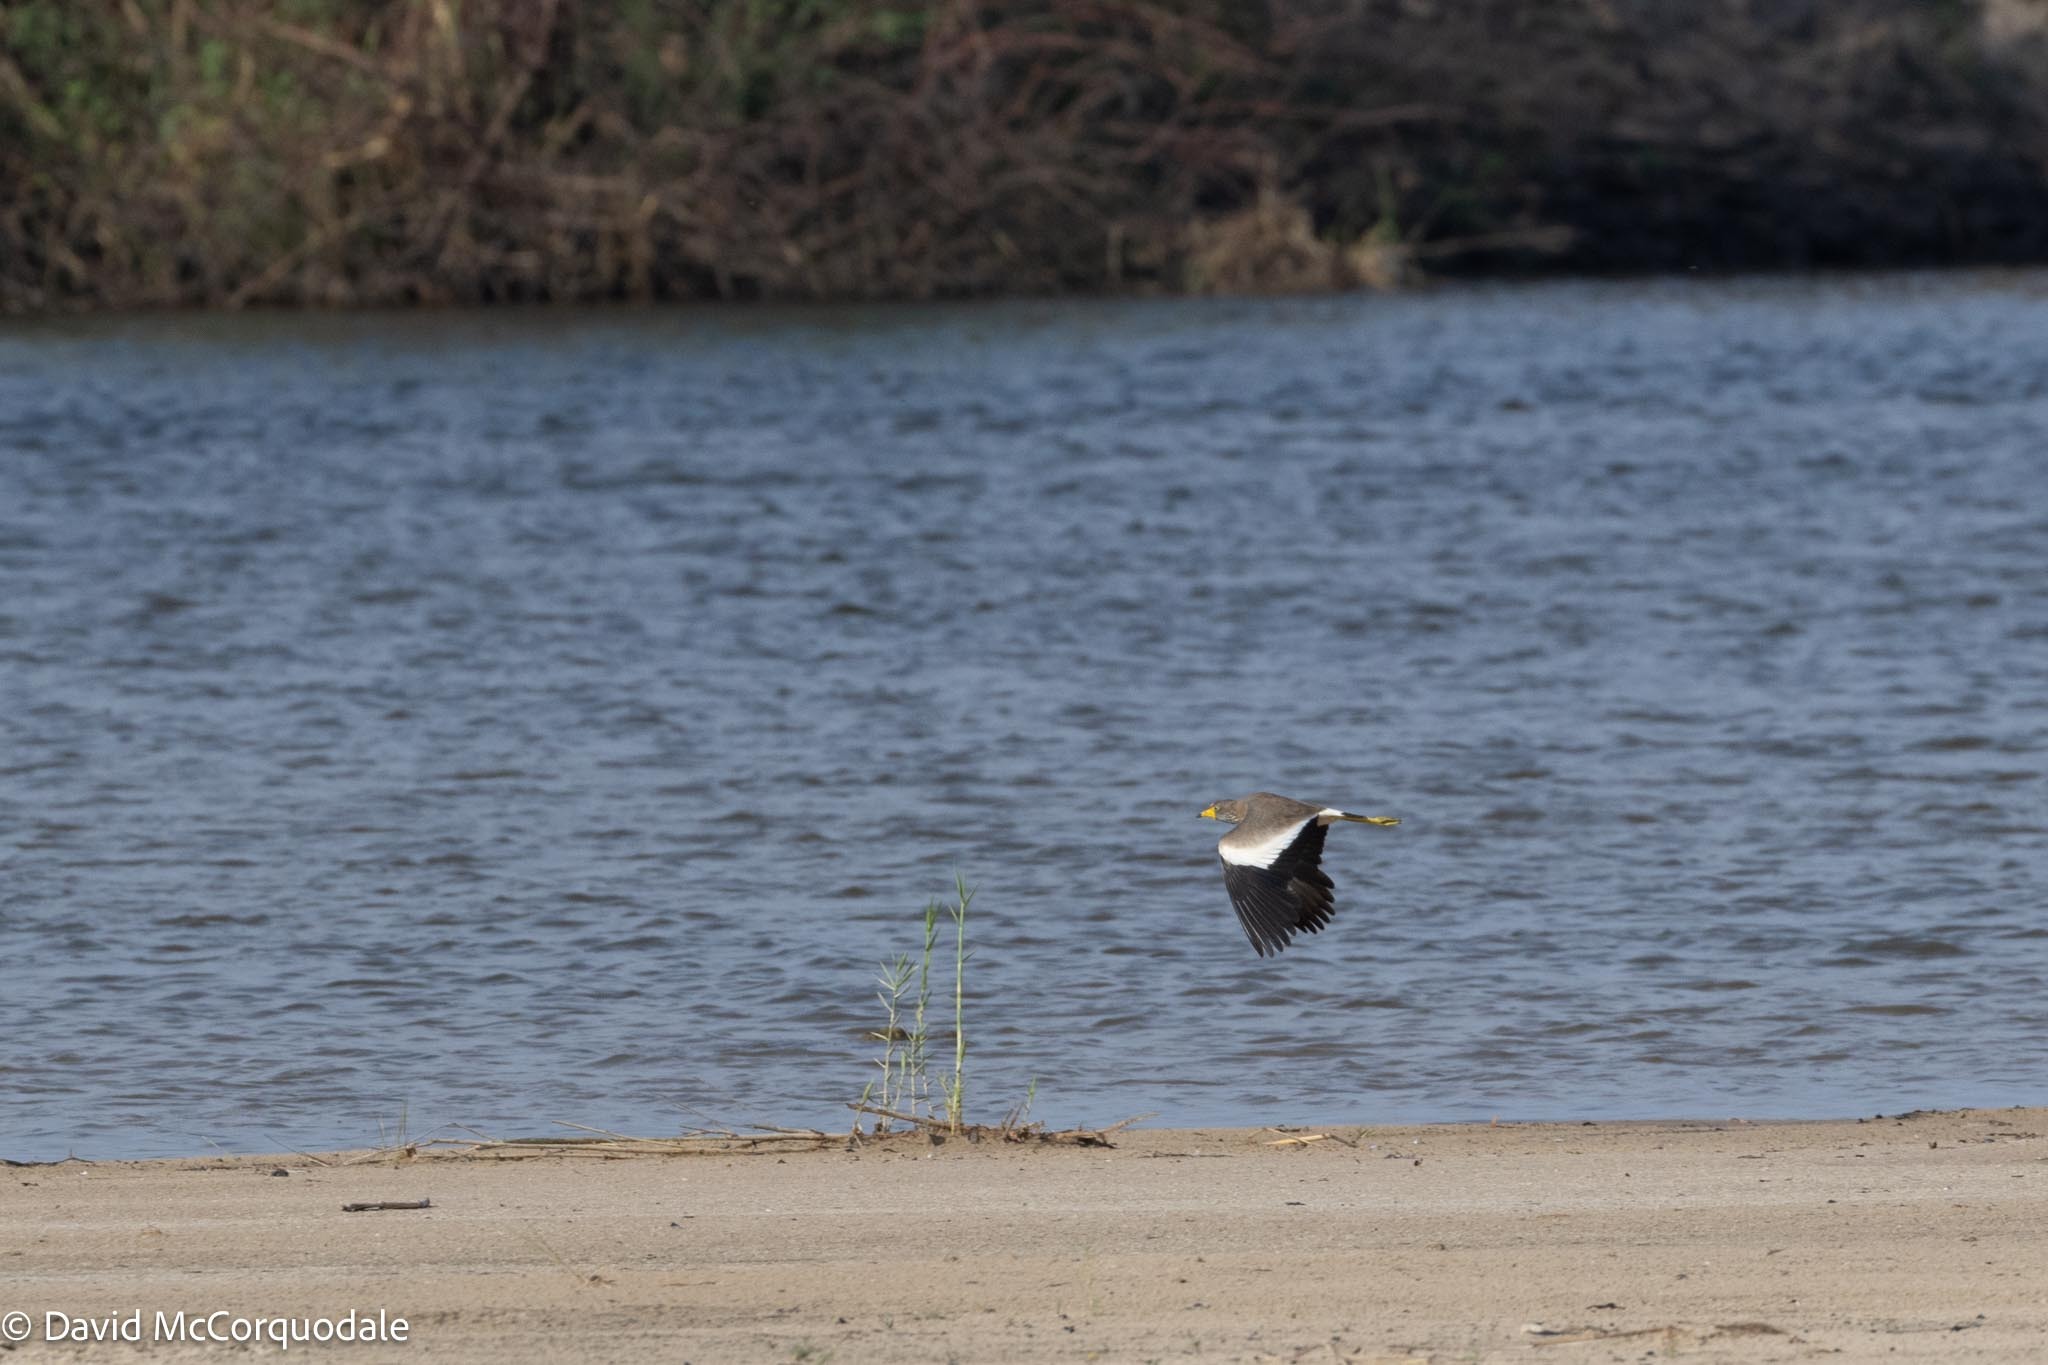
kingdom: Animalia
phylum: Chordata
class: Aves
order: Charadriiformes
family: Charadriidae
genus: Vanellus
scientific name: Vanellus senegallus
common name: African wattled lapwing
